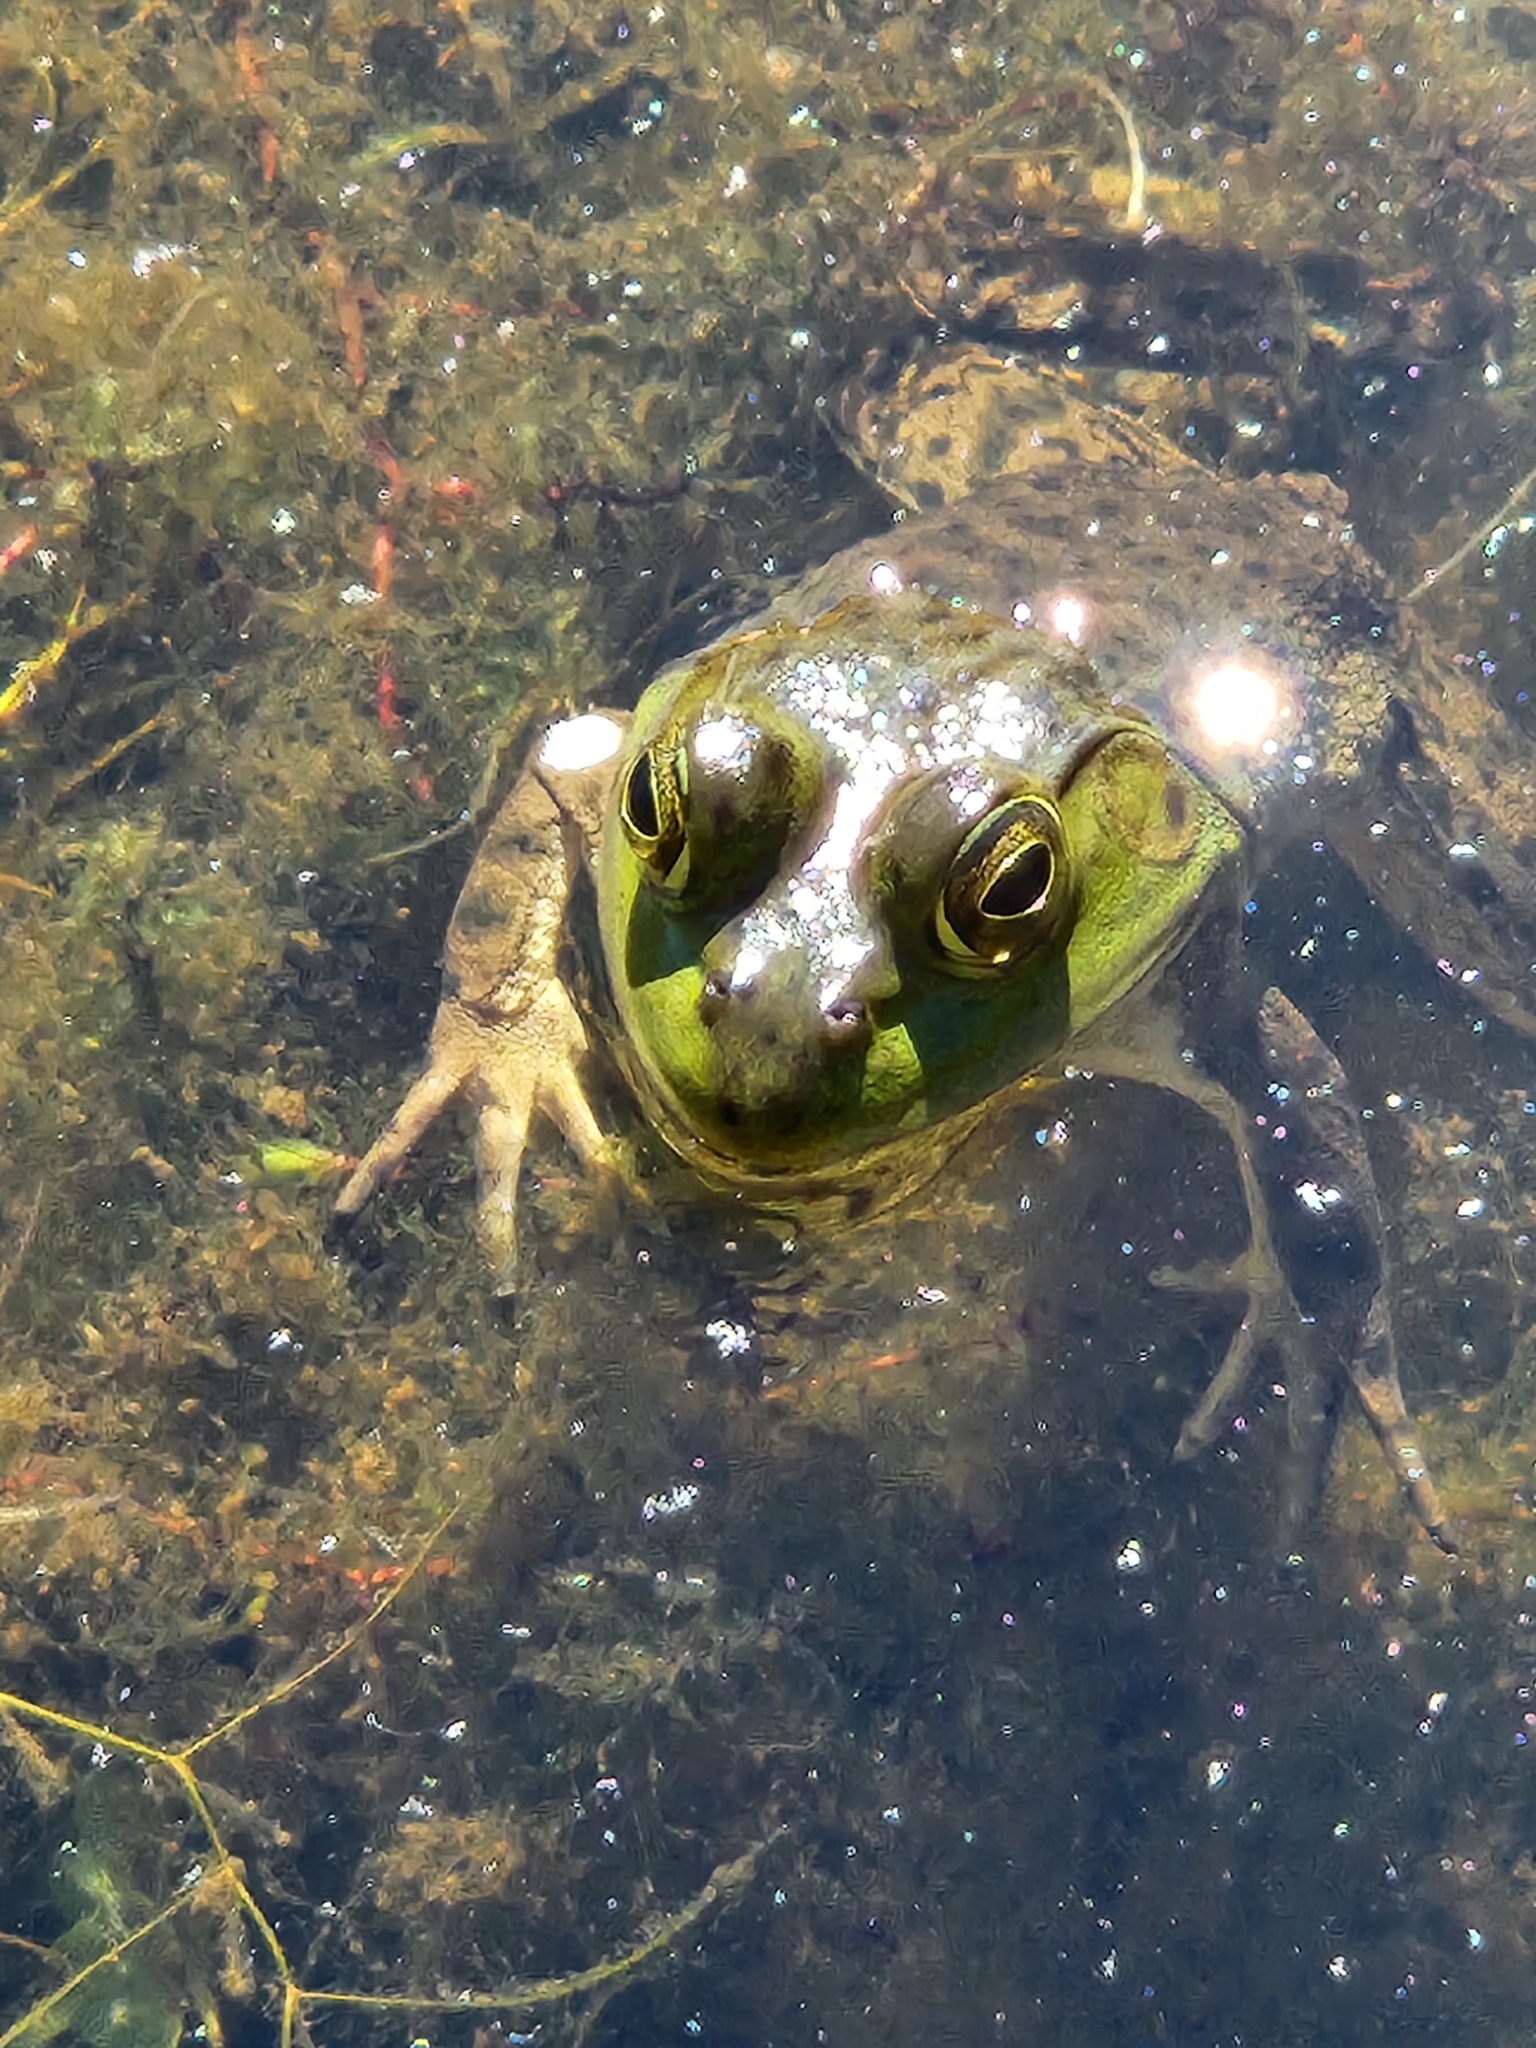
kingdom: Animalia
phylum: Chordata
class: Amphibia
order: Anura
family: Ranidae
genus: Lithobates
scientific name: Lithobates catesbeianus
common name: American bullfrog
